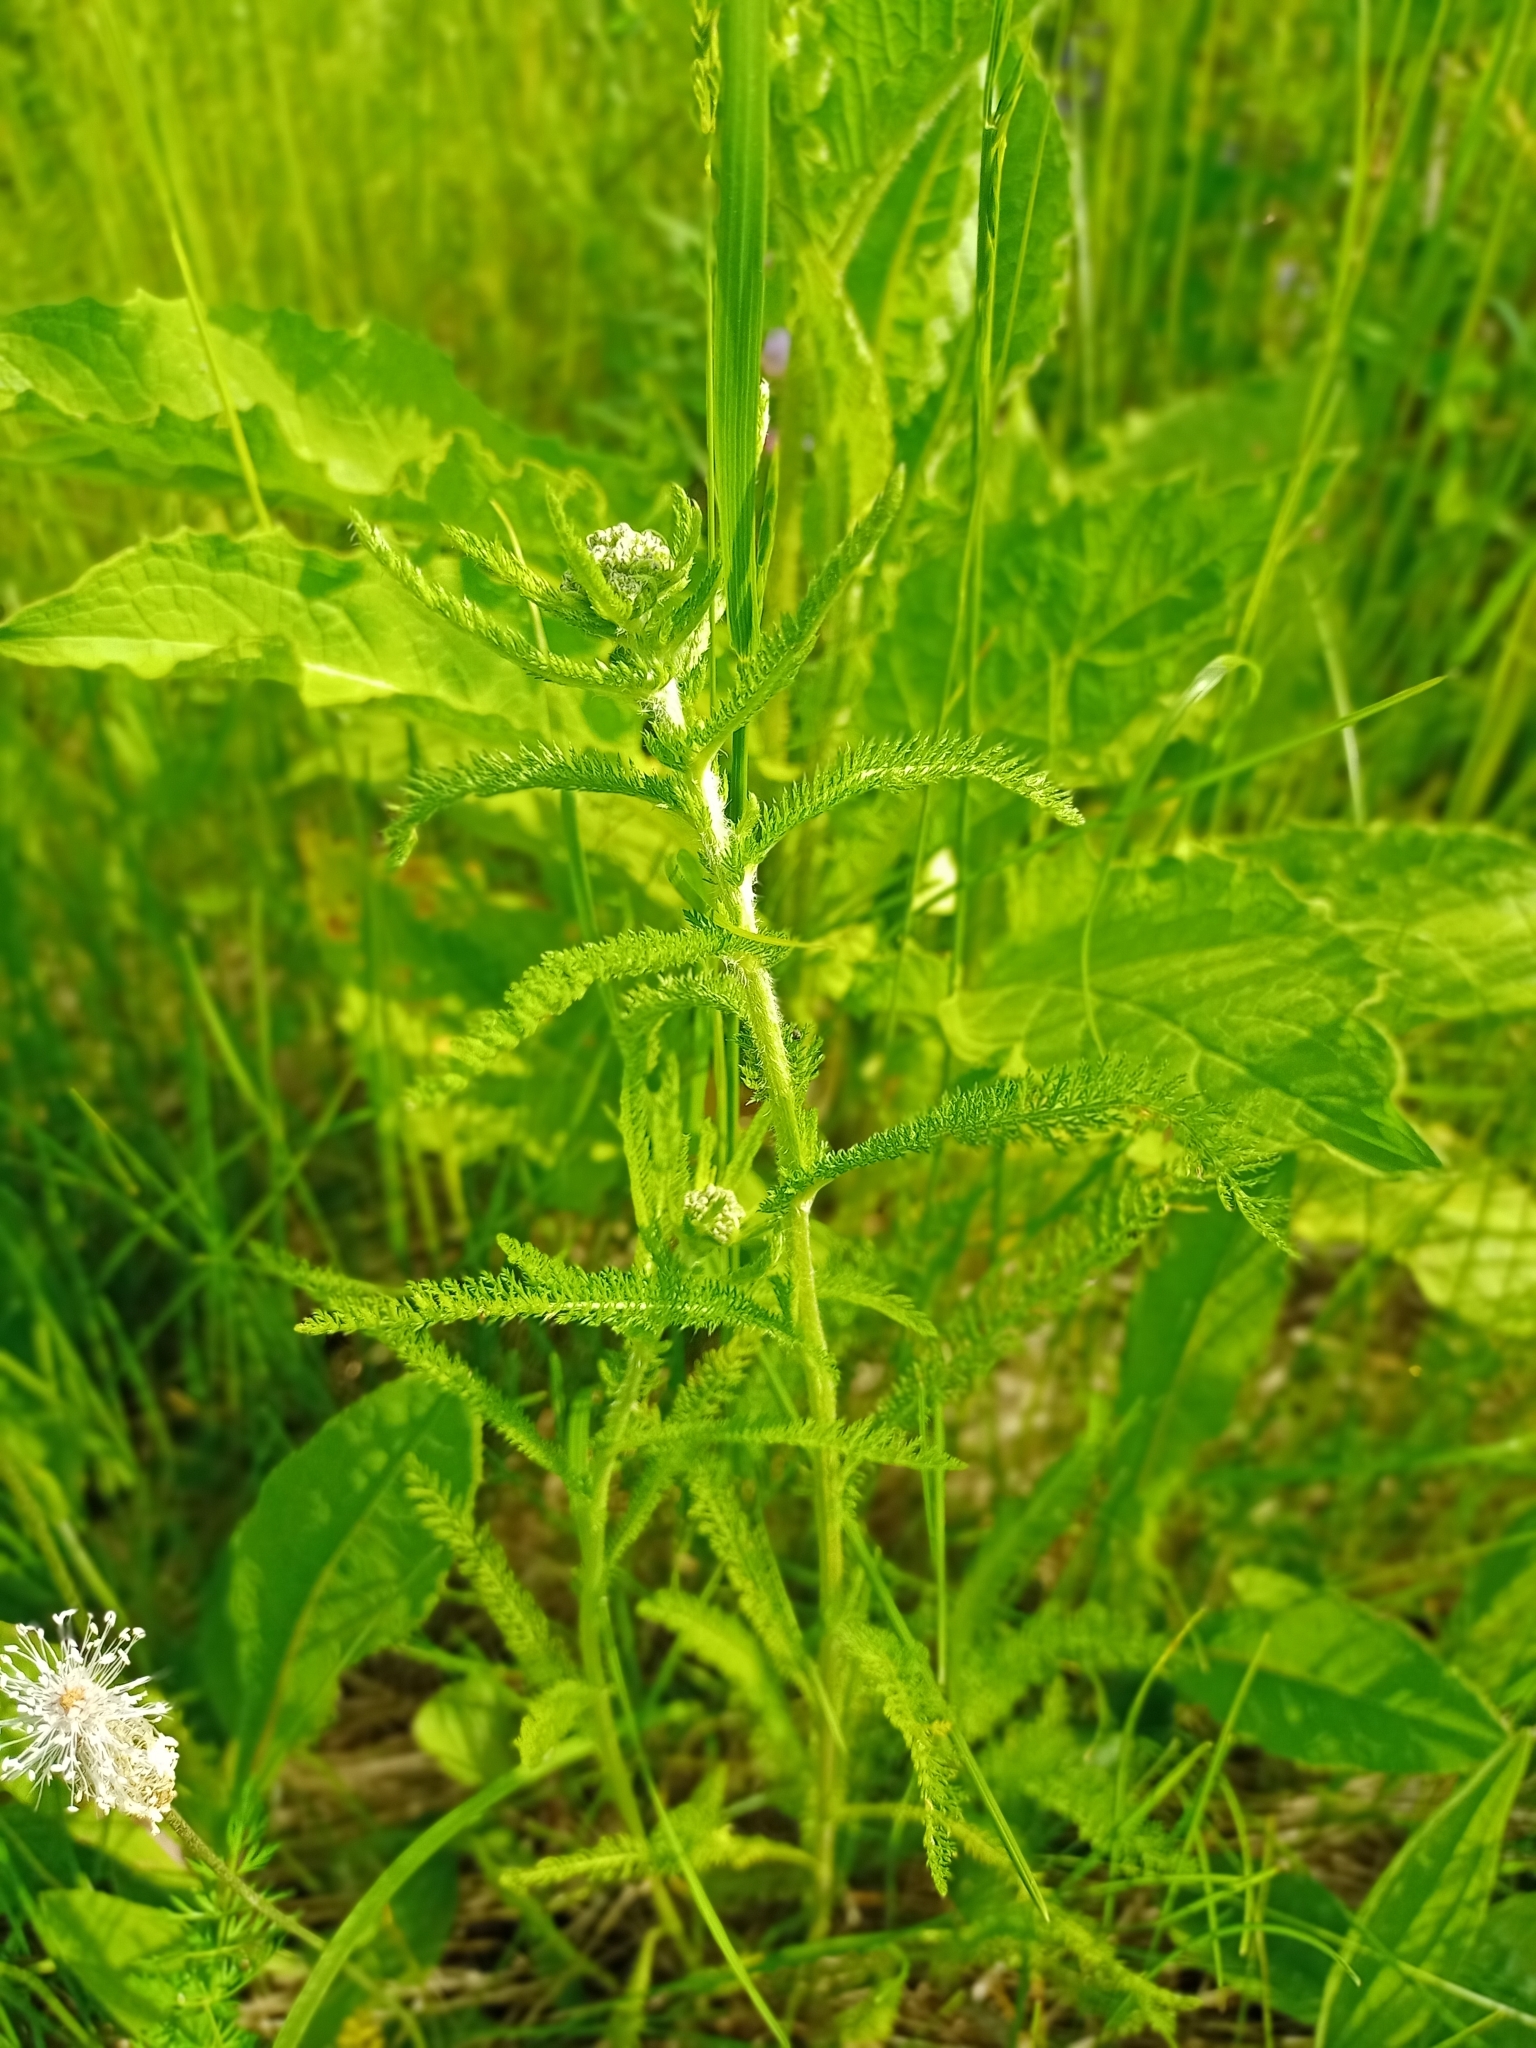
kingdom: Plantae
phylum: Tracheophyta
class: Magnoliopsida
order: Asterales
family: Asteraceae
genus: Achillea
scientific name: Achillea millefolium
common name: Yarrow
